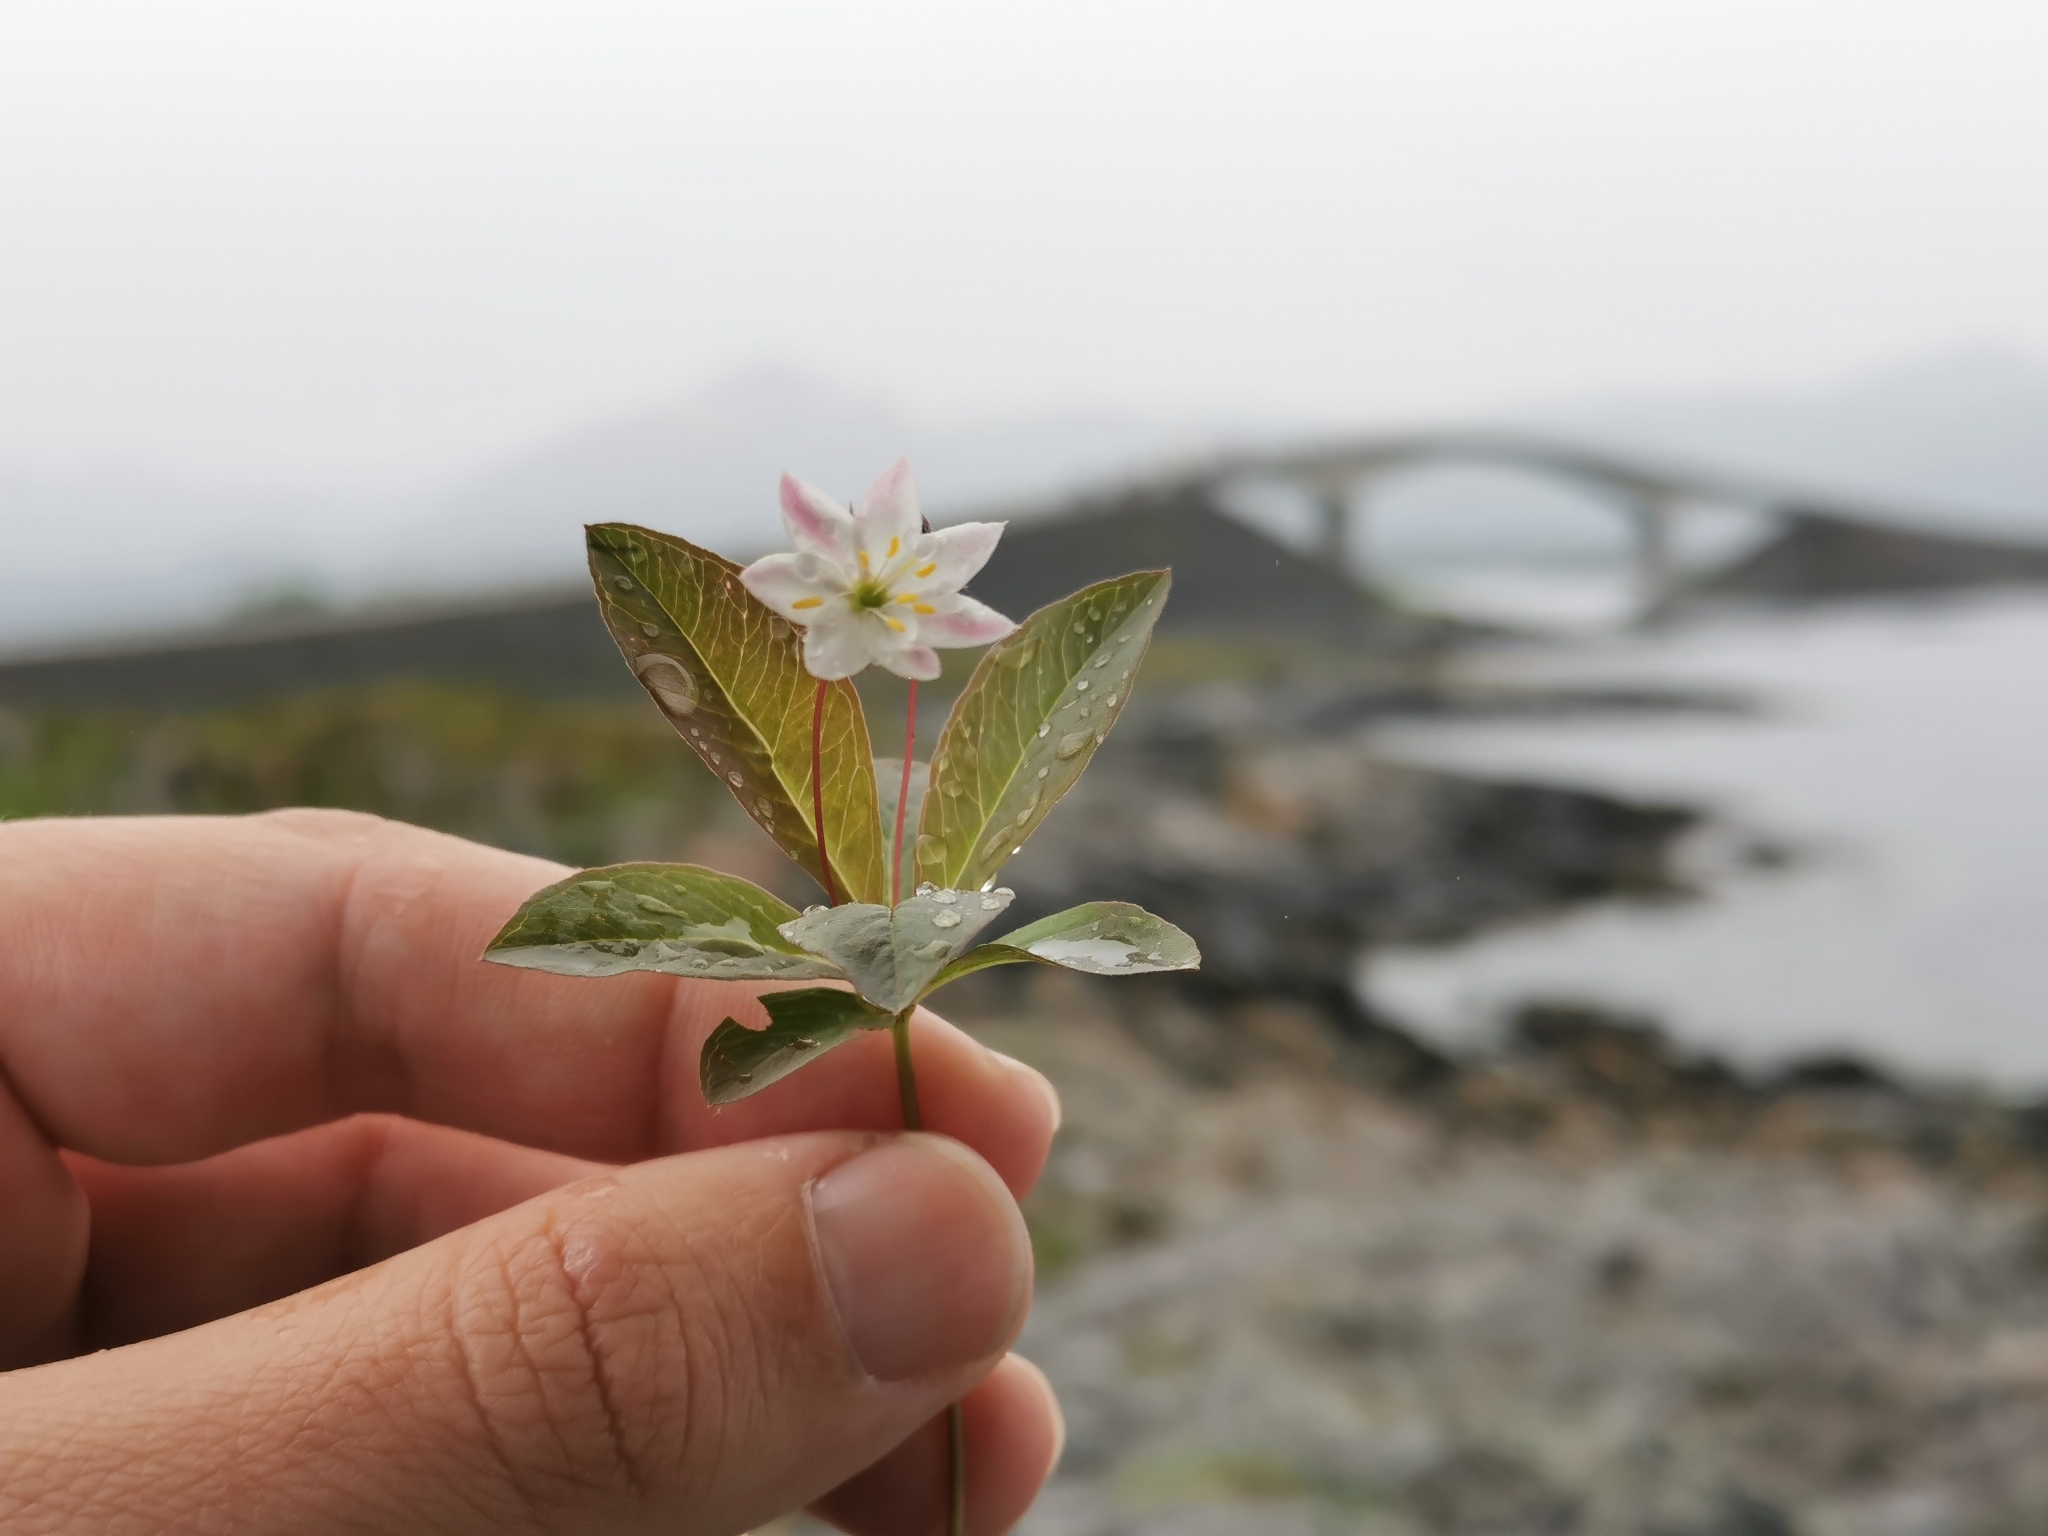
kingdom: Plantae
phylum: Tracheophyta
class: Magnoliopsida
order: Ericales
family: Primulaceae
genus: Lysimachia
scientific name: Lysimachia europaea
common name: Arctic starflower
